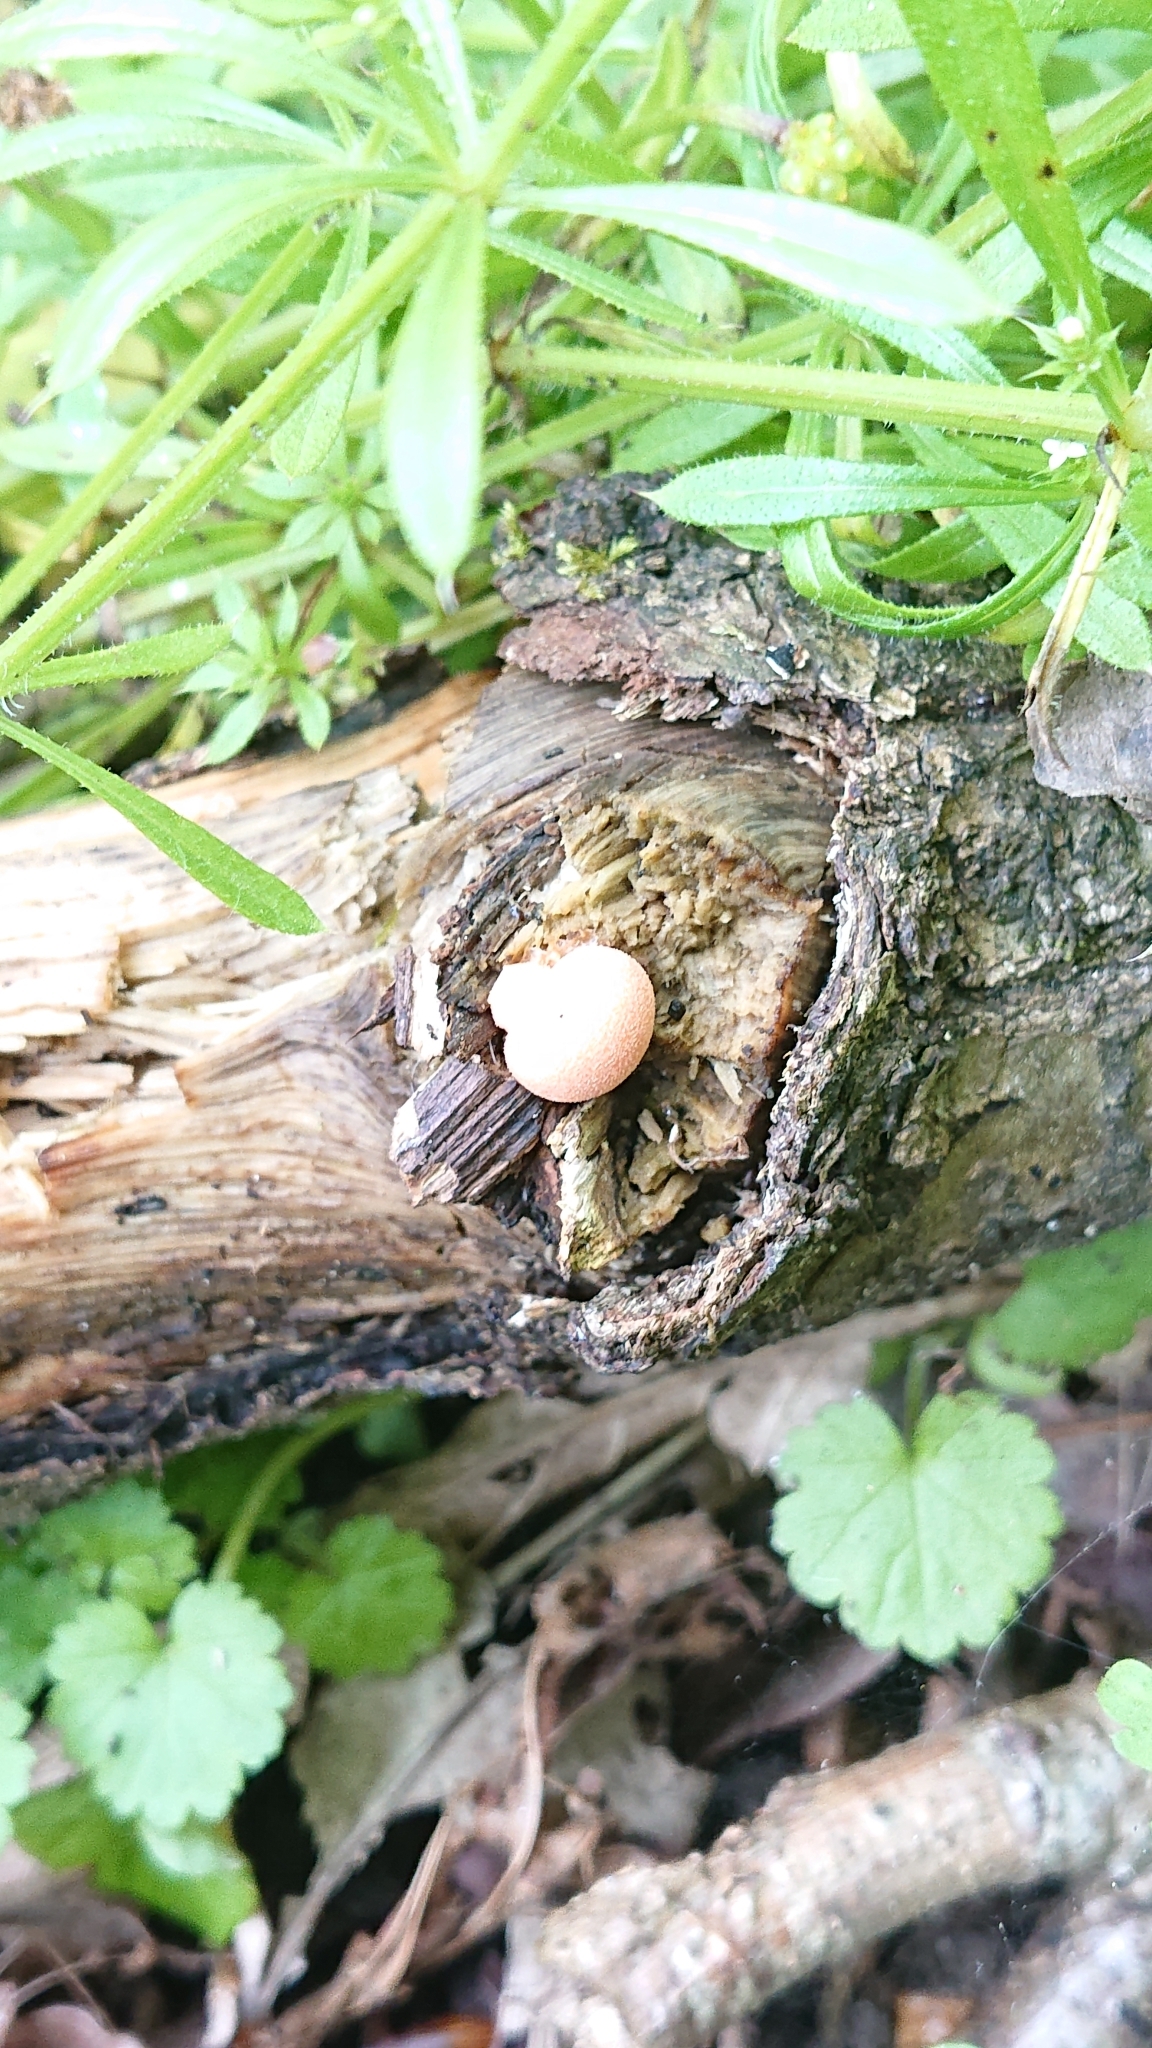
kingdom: Protozoa
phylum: Mycetozoa
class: Myxomycetes
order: Cribrariales
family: Tubiferaceae
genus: Lycogala
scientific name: Lycogala epidendrum
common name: Wolf's milk
